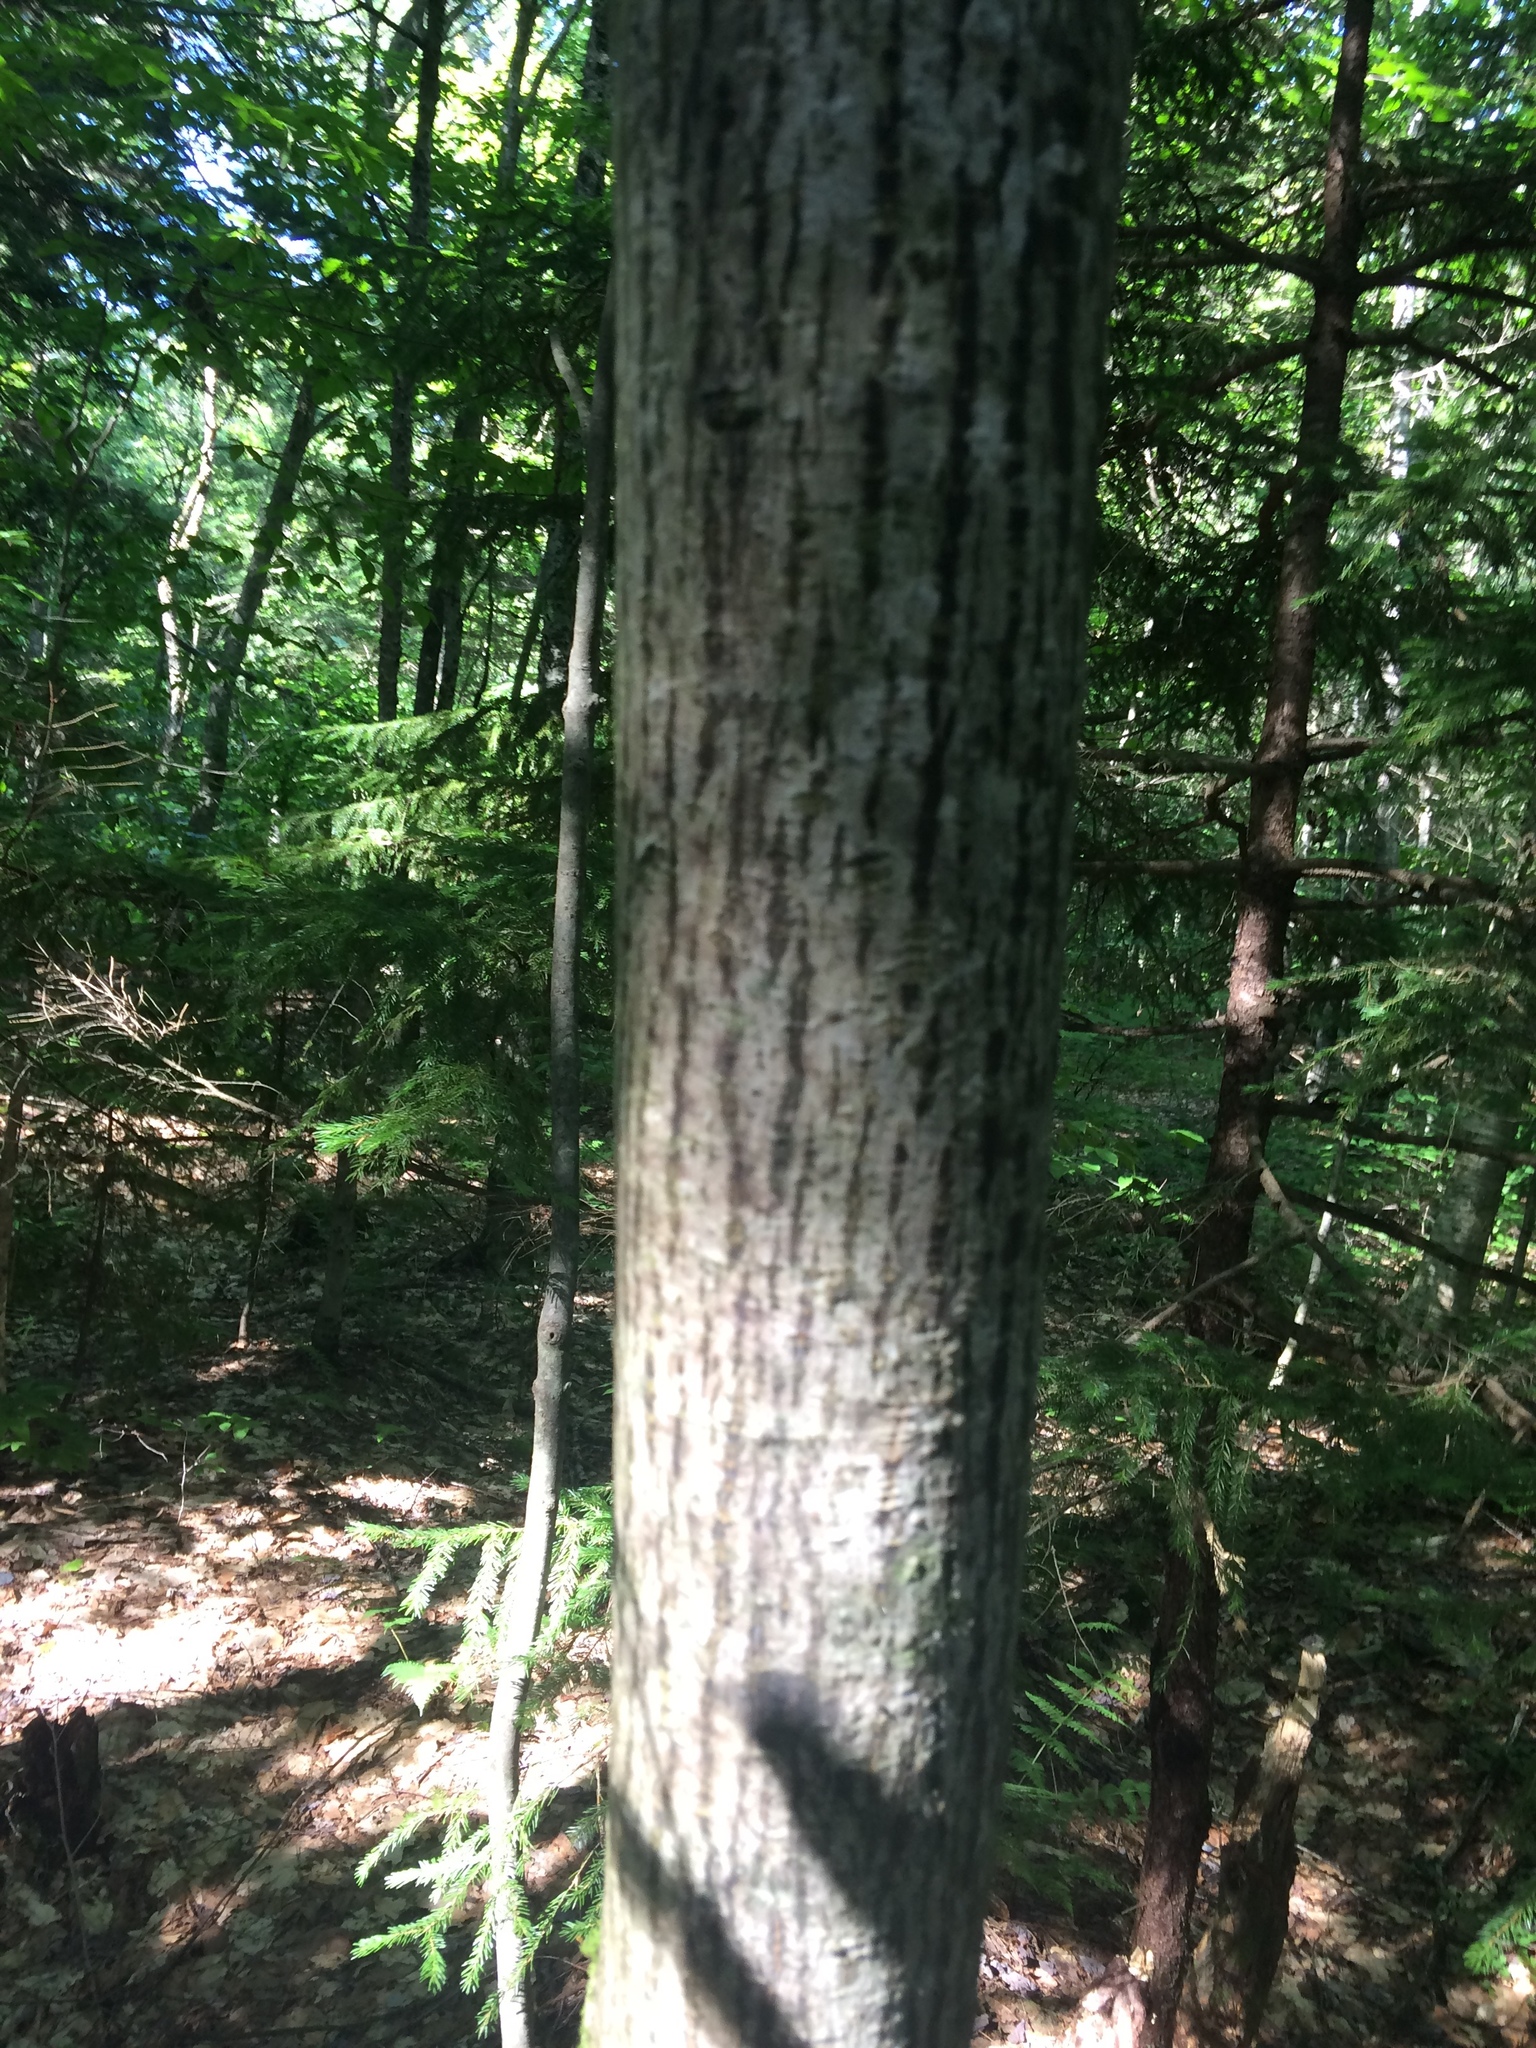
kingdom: Plantae
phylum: Tracheophyta
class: Magnoliopsida
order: Sapindales
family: Sapindaceae
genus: Acer
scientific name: Acer pensylvanicum
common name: Moosewood
